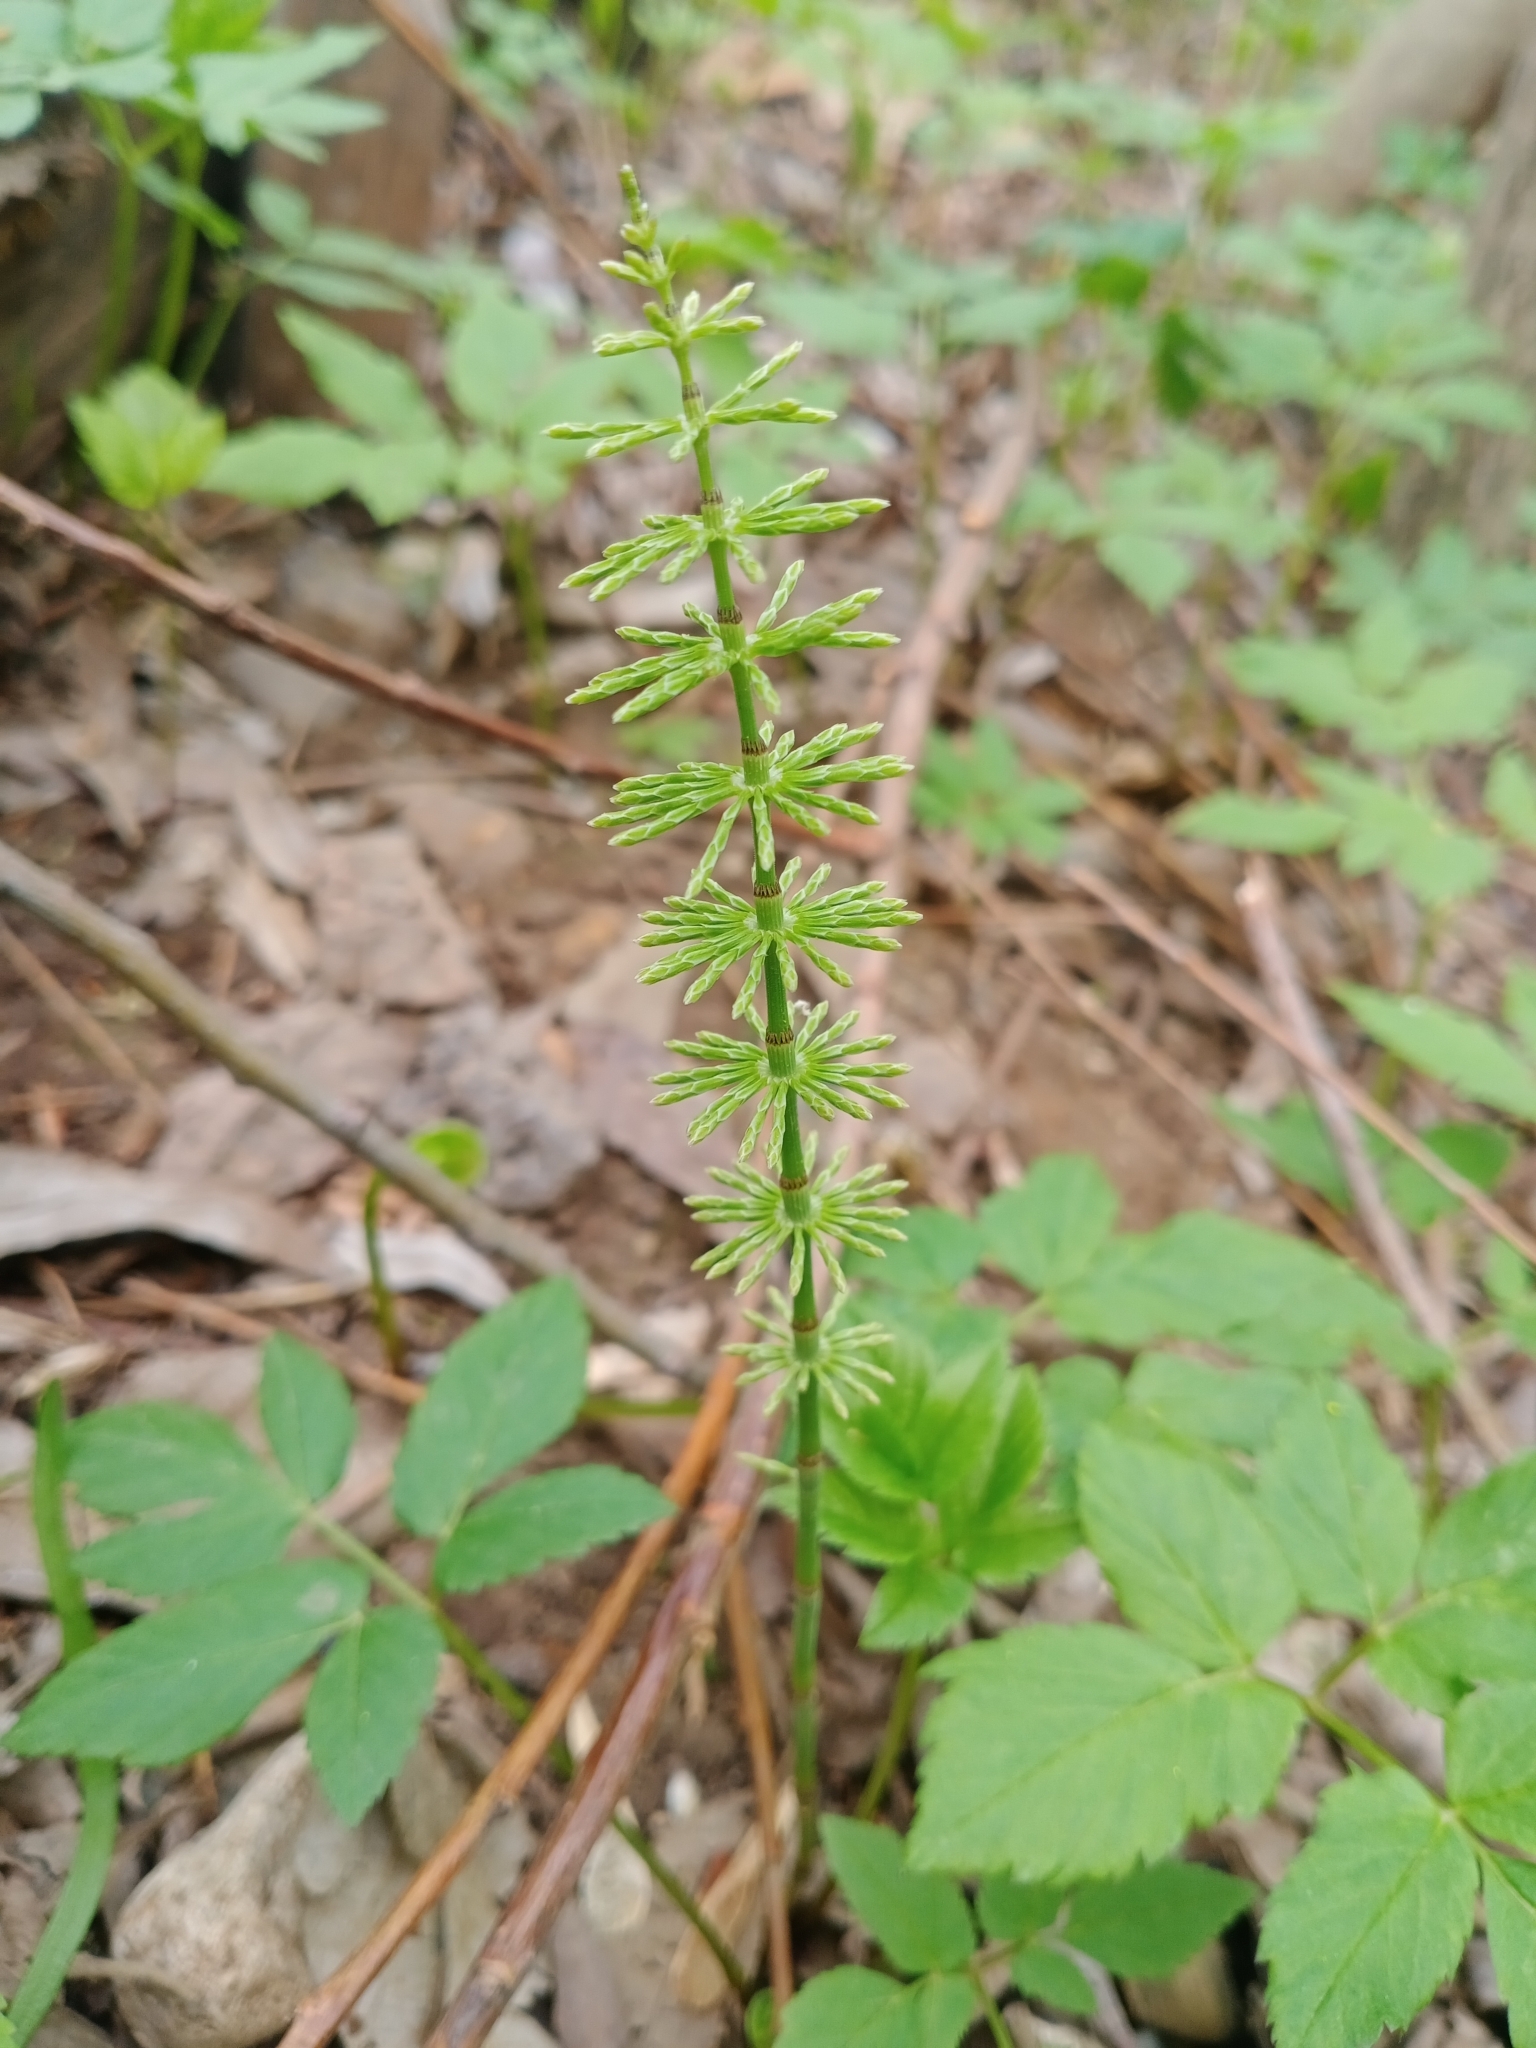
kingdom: Plantae
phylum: Tracheophyta
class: Polypodiopsida
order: Equisetales
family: Equisetaceae
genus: Equisetum
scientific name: Equisetum pratense
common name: Meadow horsetail
